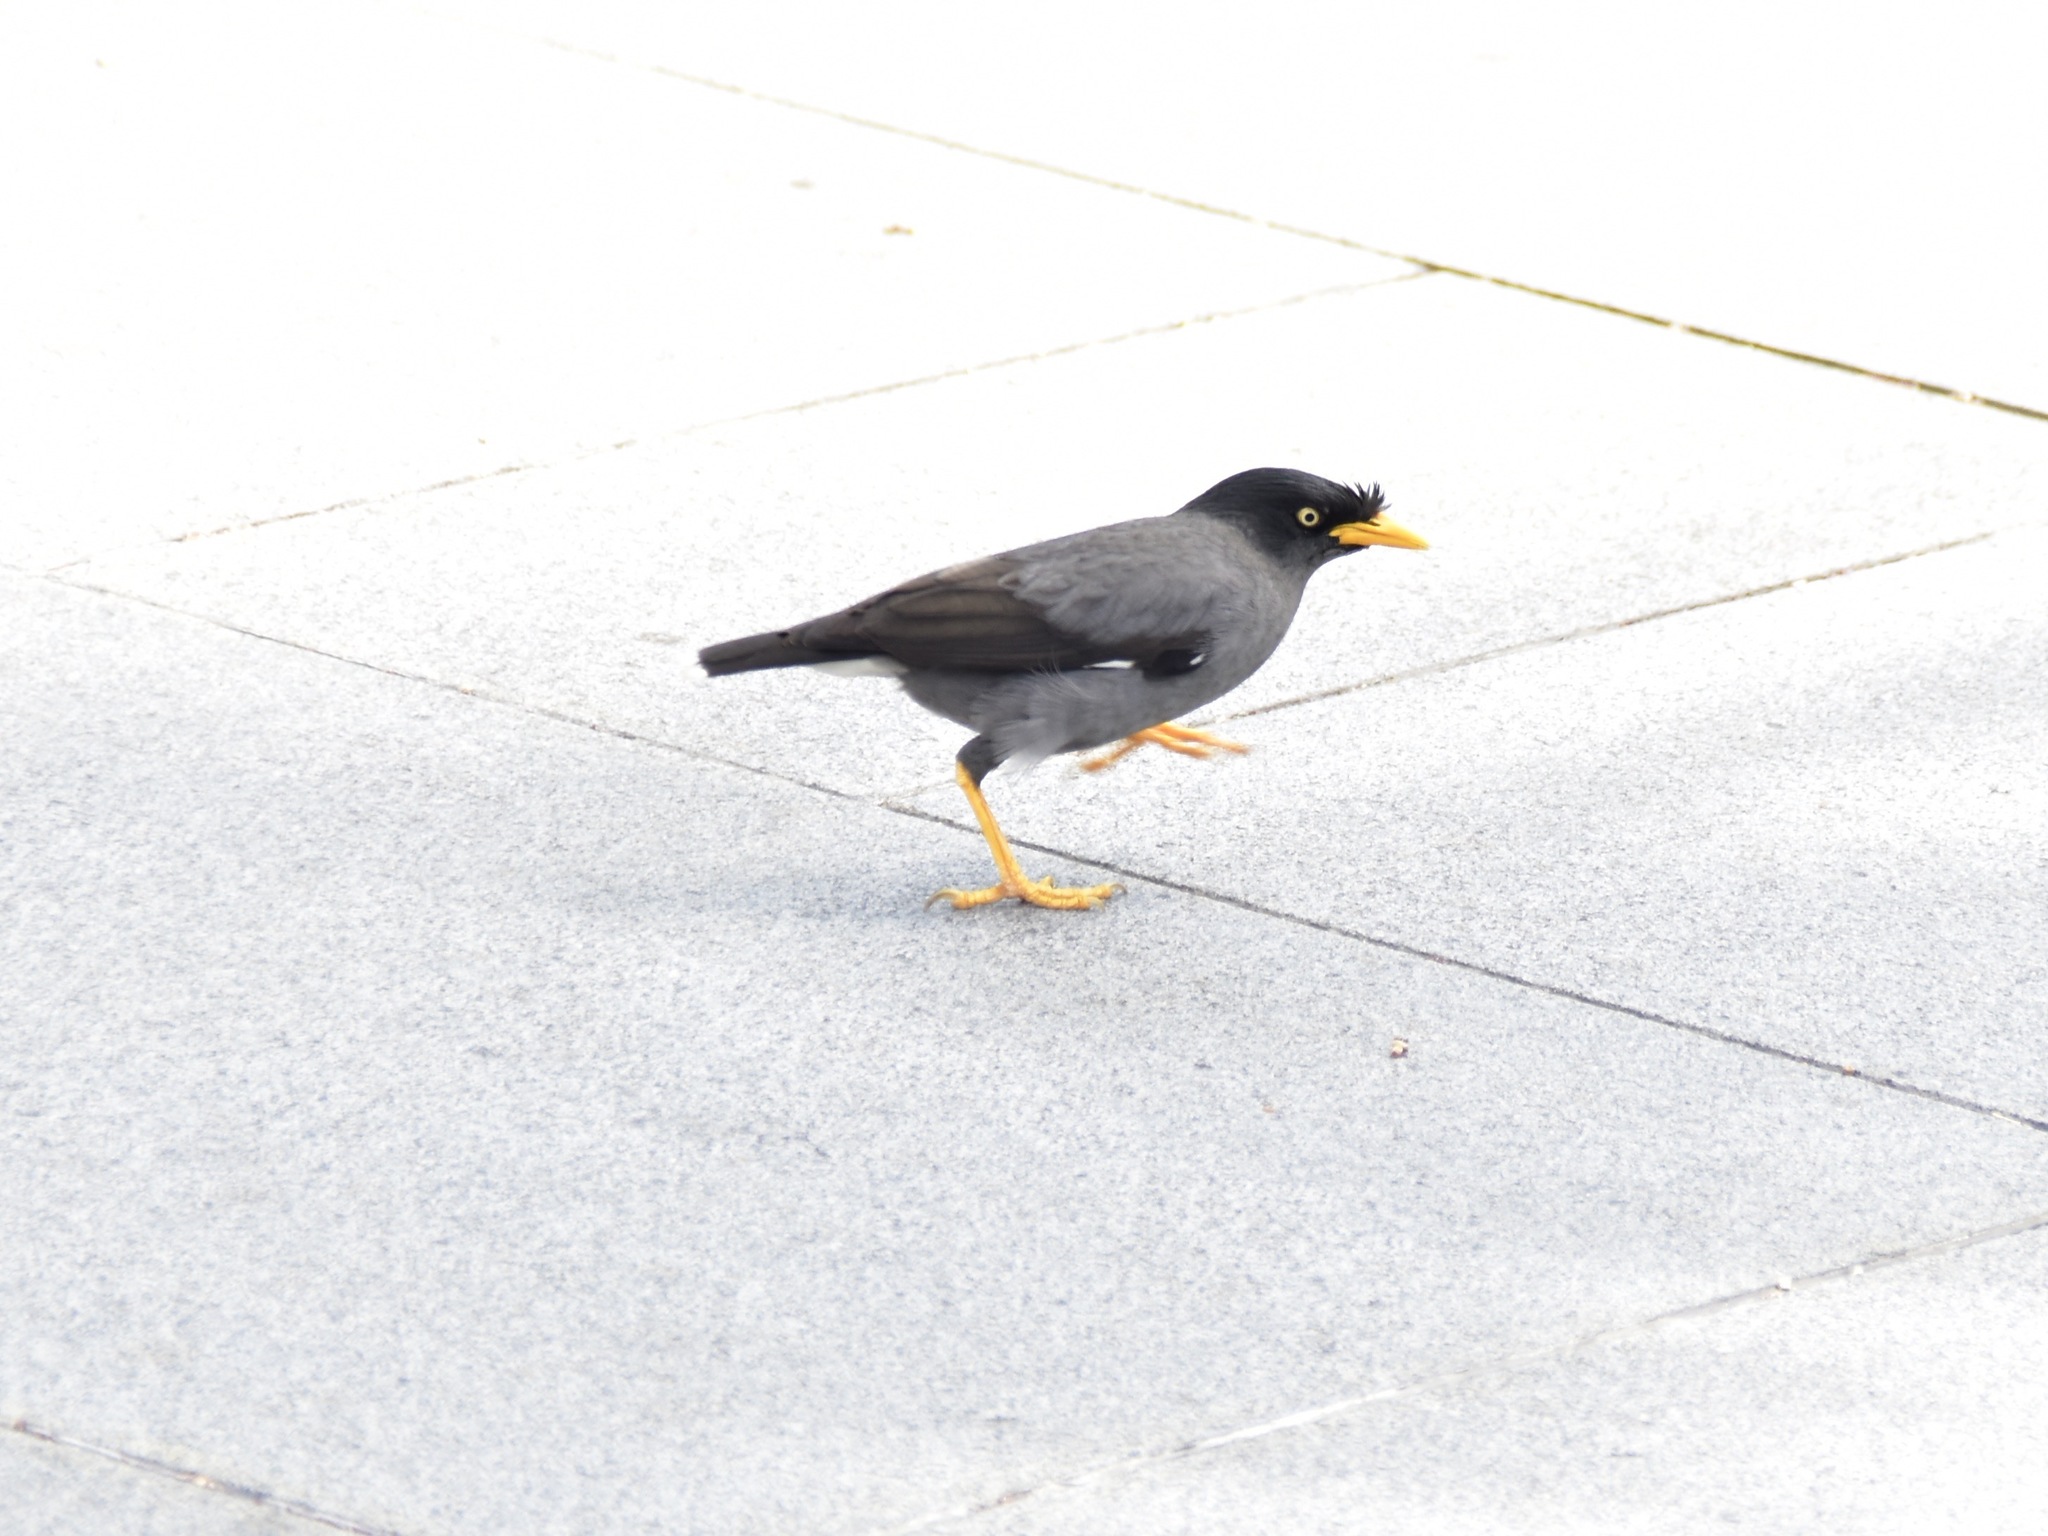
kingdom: Animalia
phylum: Chordata
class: Aves
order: Passeriformes
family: Sturnidae
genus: Acridotheres
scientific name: Acridotheres javanicus
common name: Javan myna
